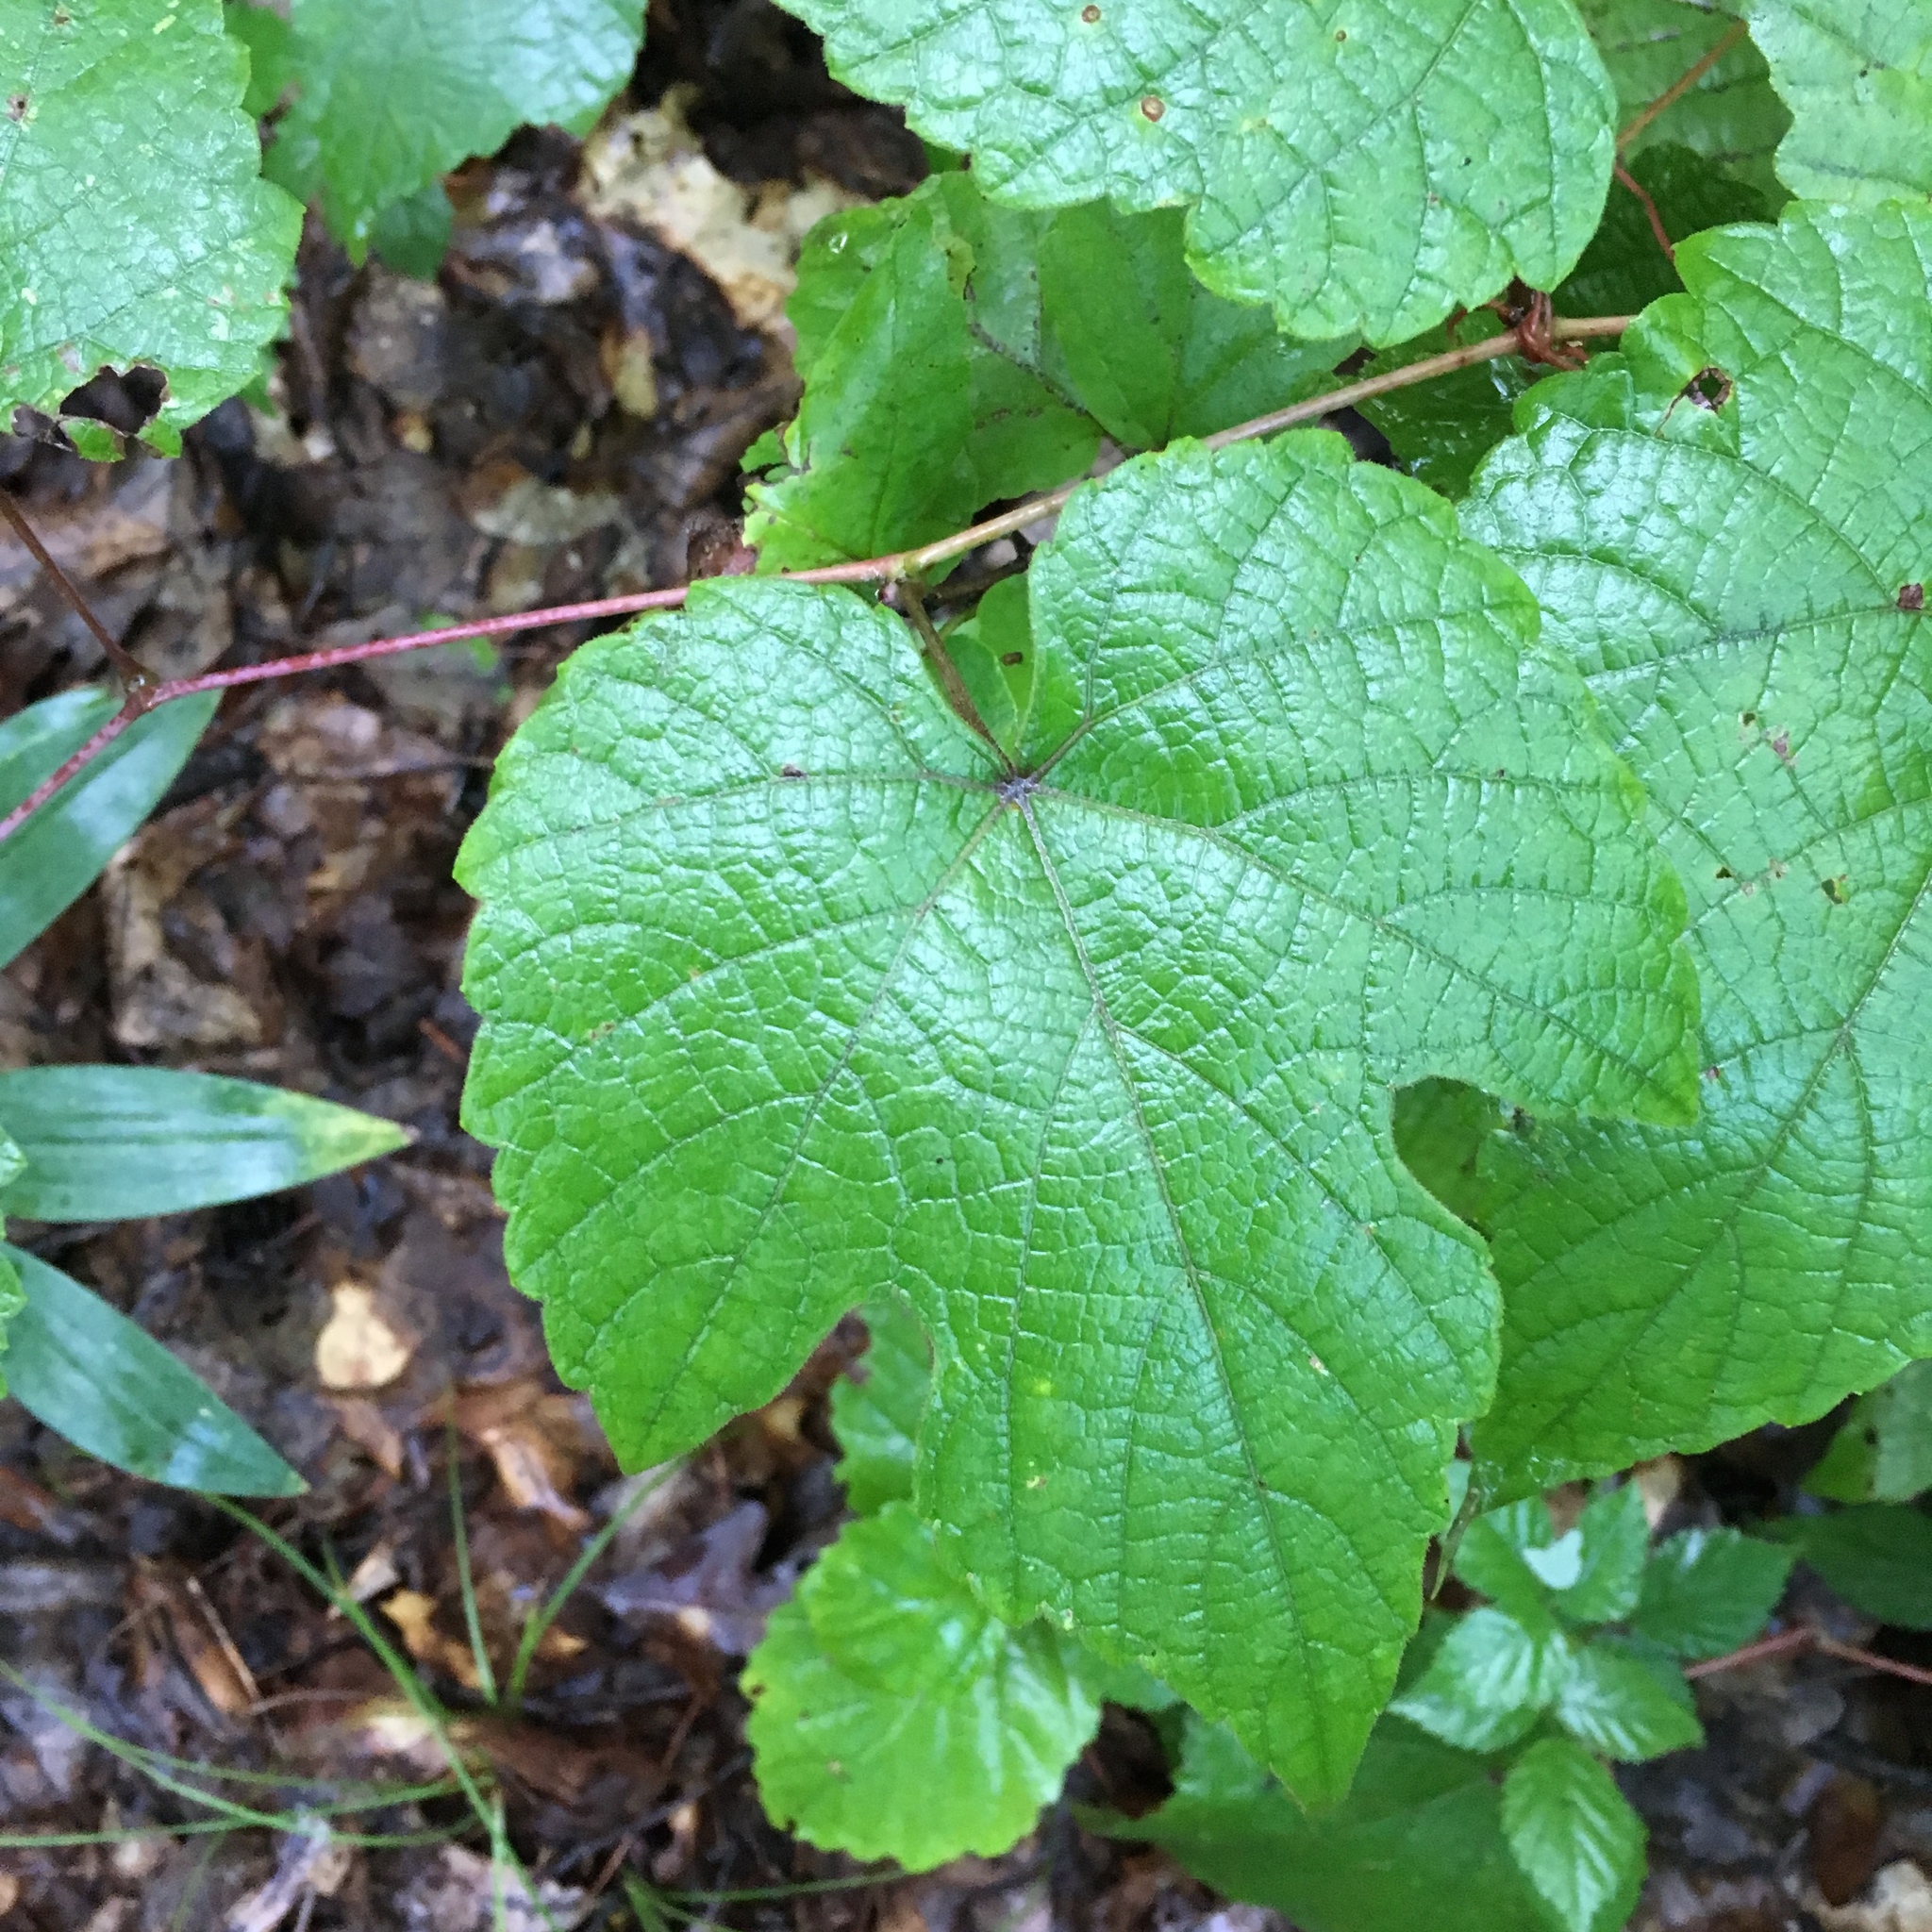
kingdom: Plantae
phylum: Tracheophyta
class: Magnoliopsida
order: Vitales
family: Vitaceae
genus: Vitis
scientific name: Vitis aestivalis
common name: Pigeon grape
